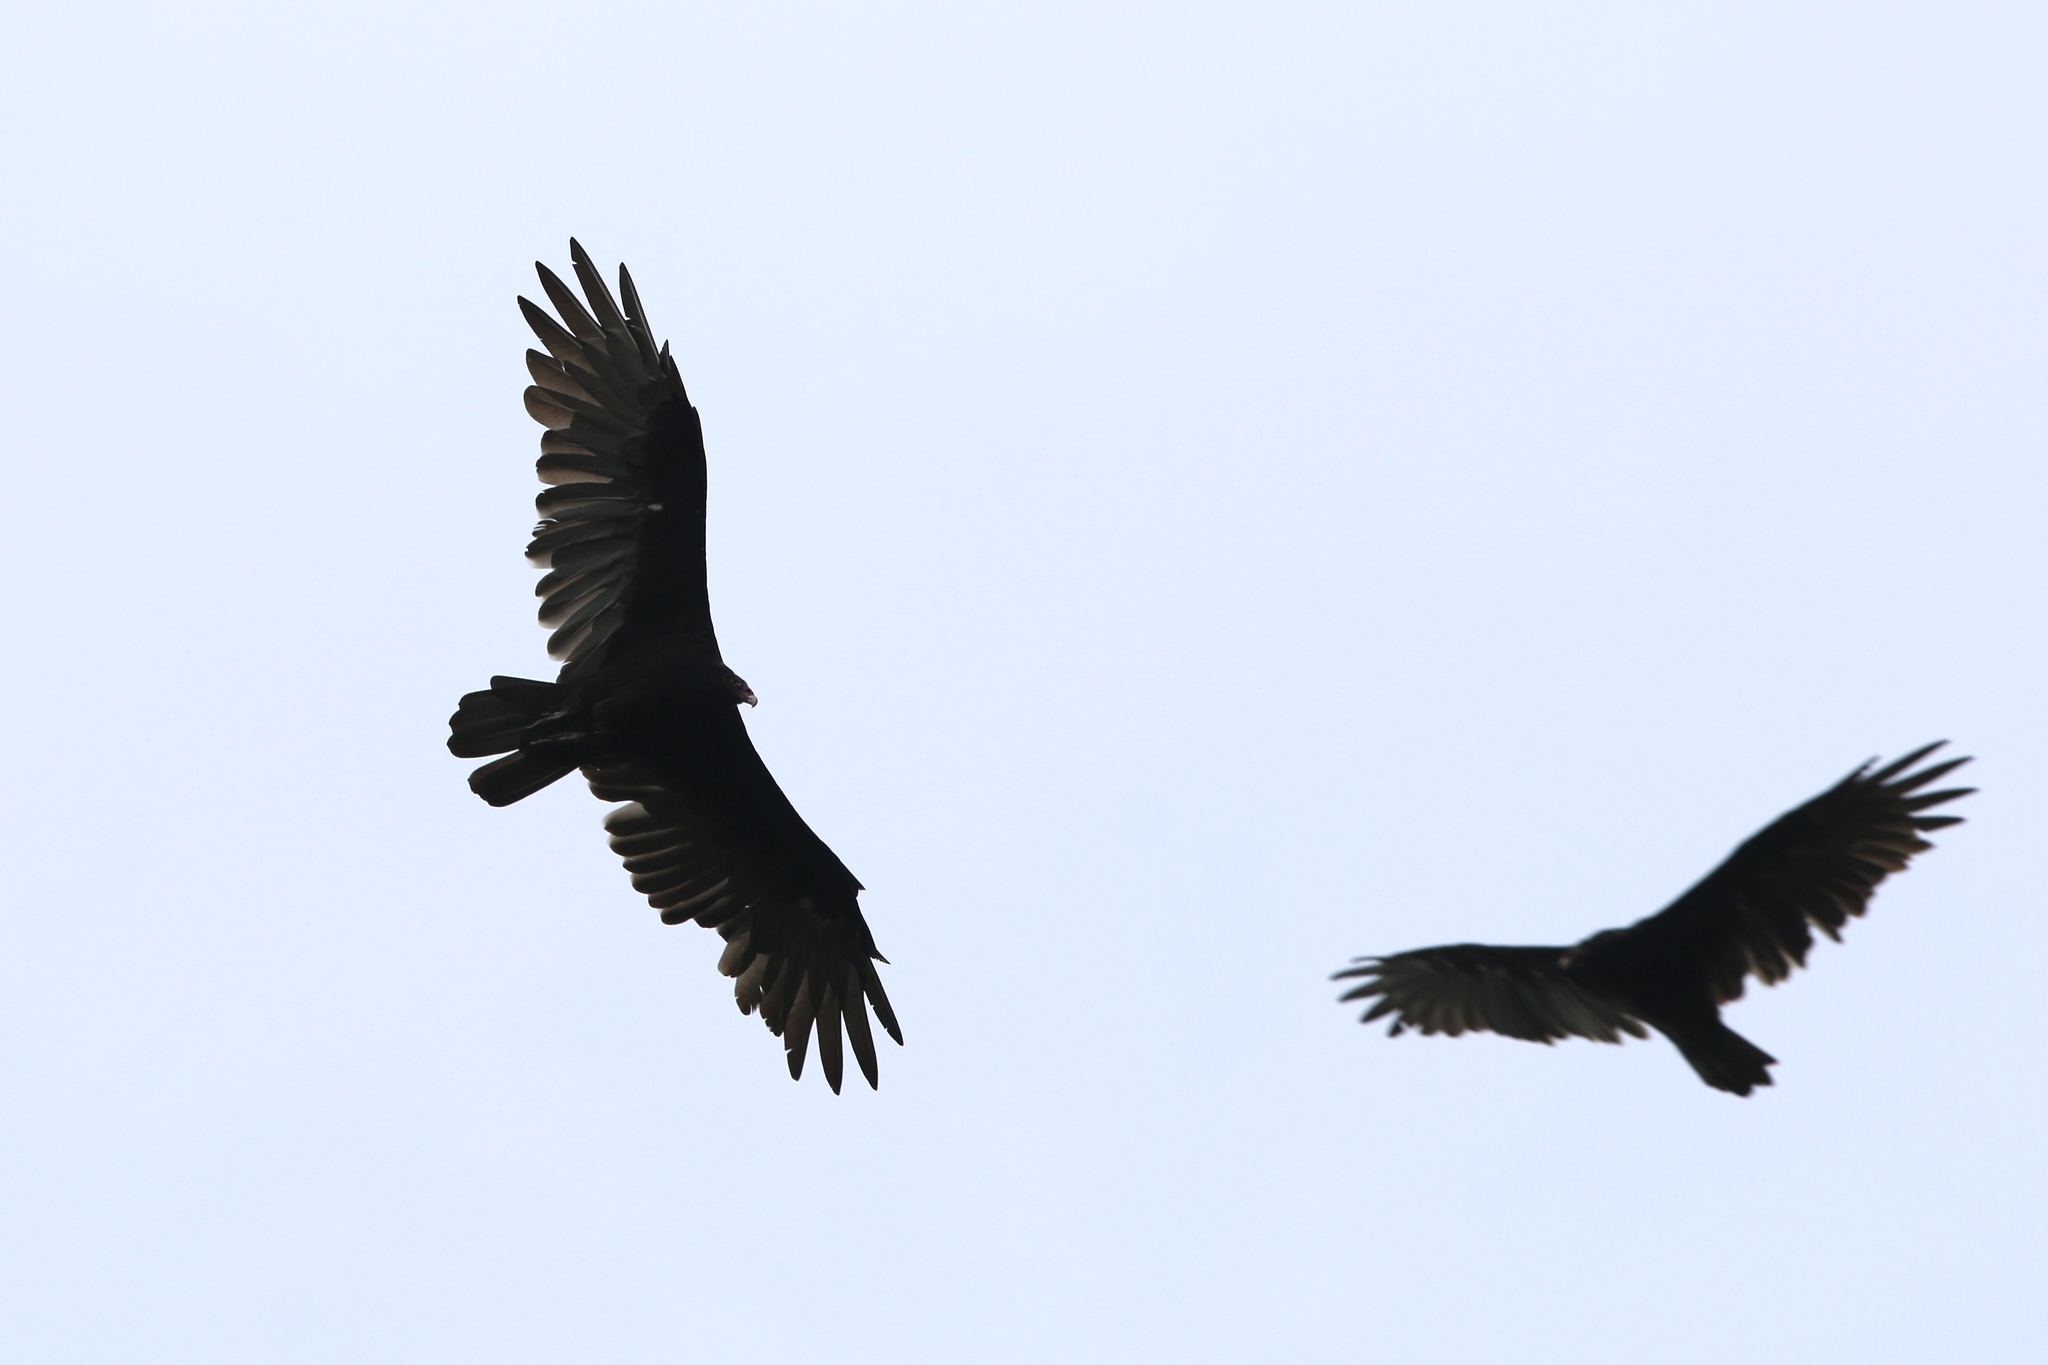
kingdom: Animalia
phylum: Chordata
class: Aves
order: Accipitriformes
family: Cathartidae
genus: Cathartes
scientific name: Cathartes aura
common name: Turkey vulture
